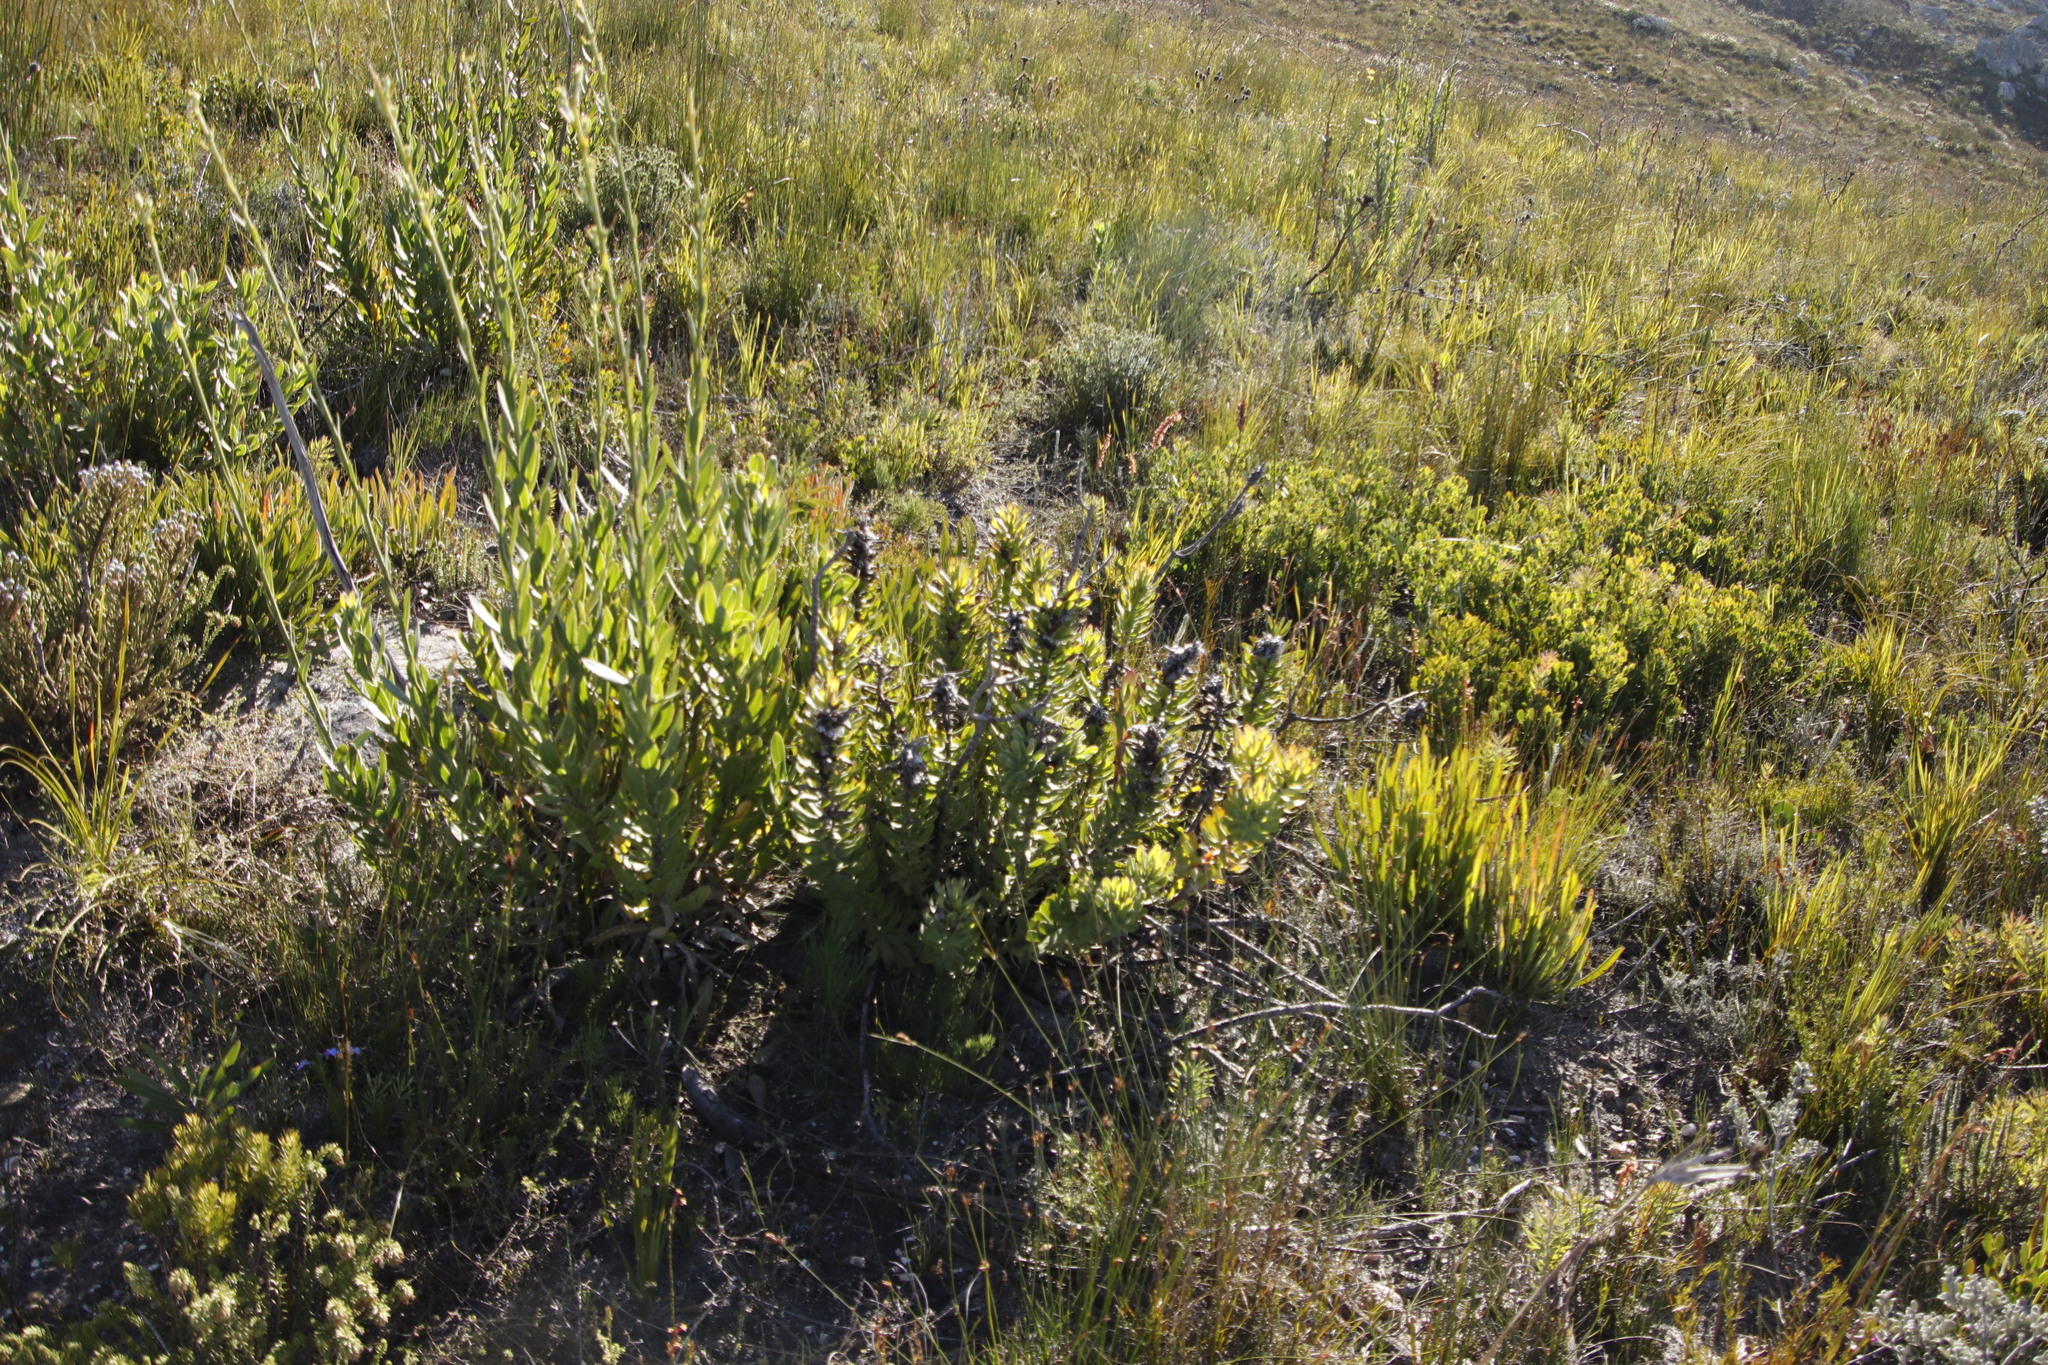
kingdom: Plantae
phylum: Tracheophyta
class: Magnoliopsida
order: Proteales
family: Proteaceae
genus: Mimetes
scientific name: Mimetes cucullatus
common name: Common pagoda
